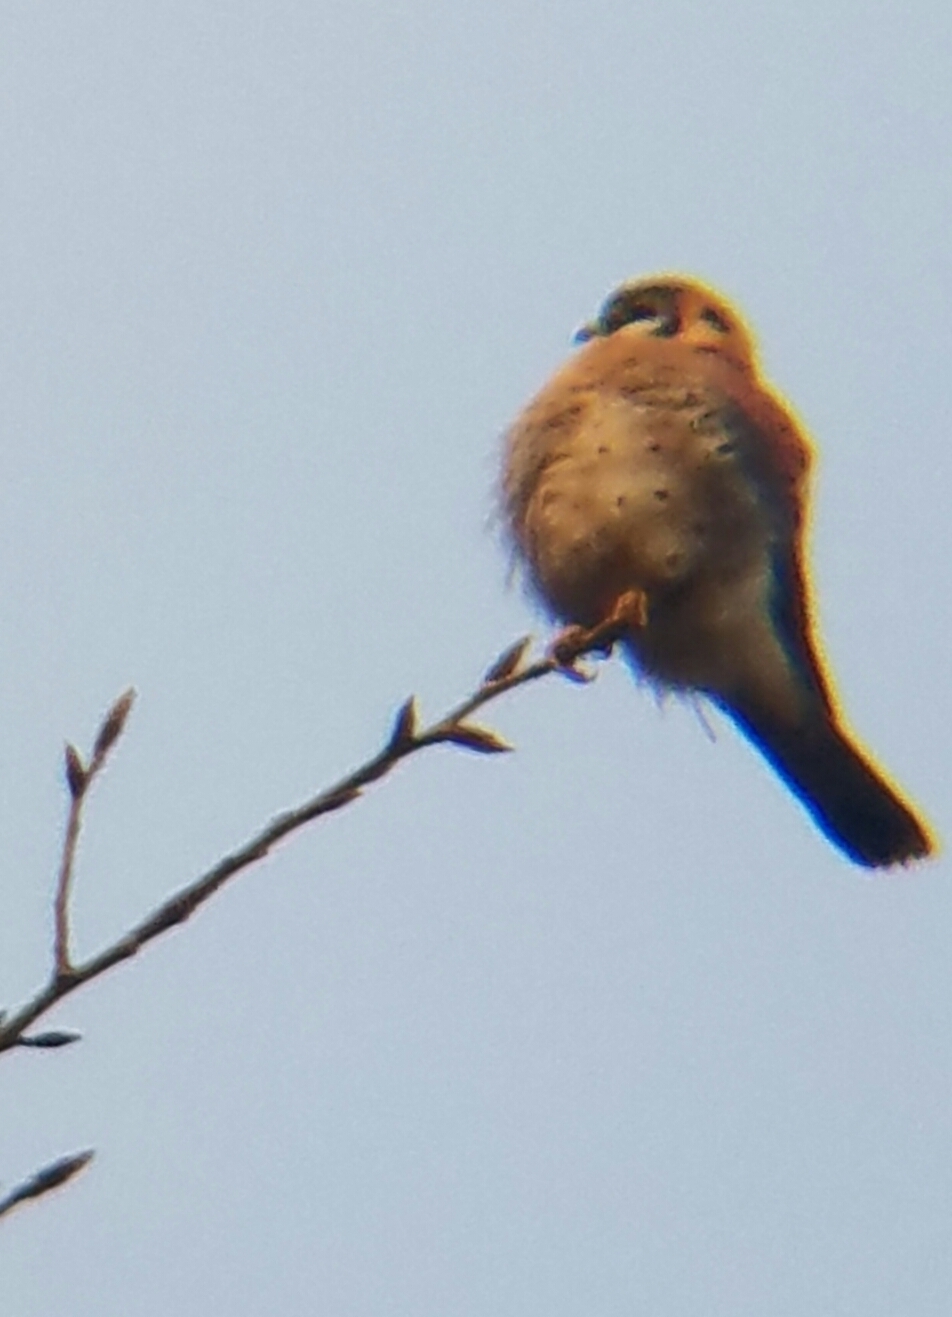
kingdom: Animalia
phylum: Chordata
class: Aves
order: Falconiformes
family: Falconidae
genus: Falco
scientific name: Falco sparverius
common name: American kestrel
